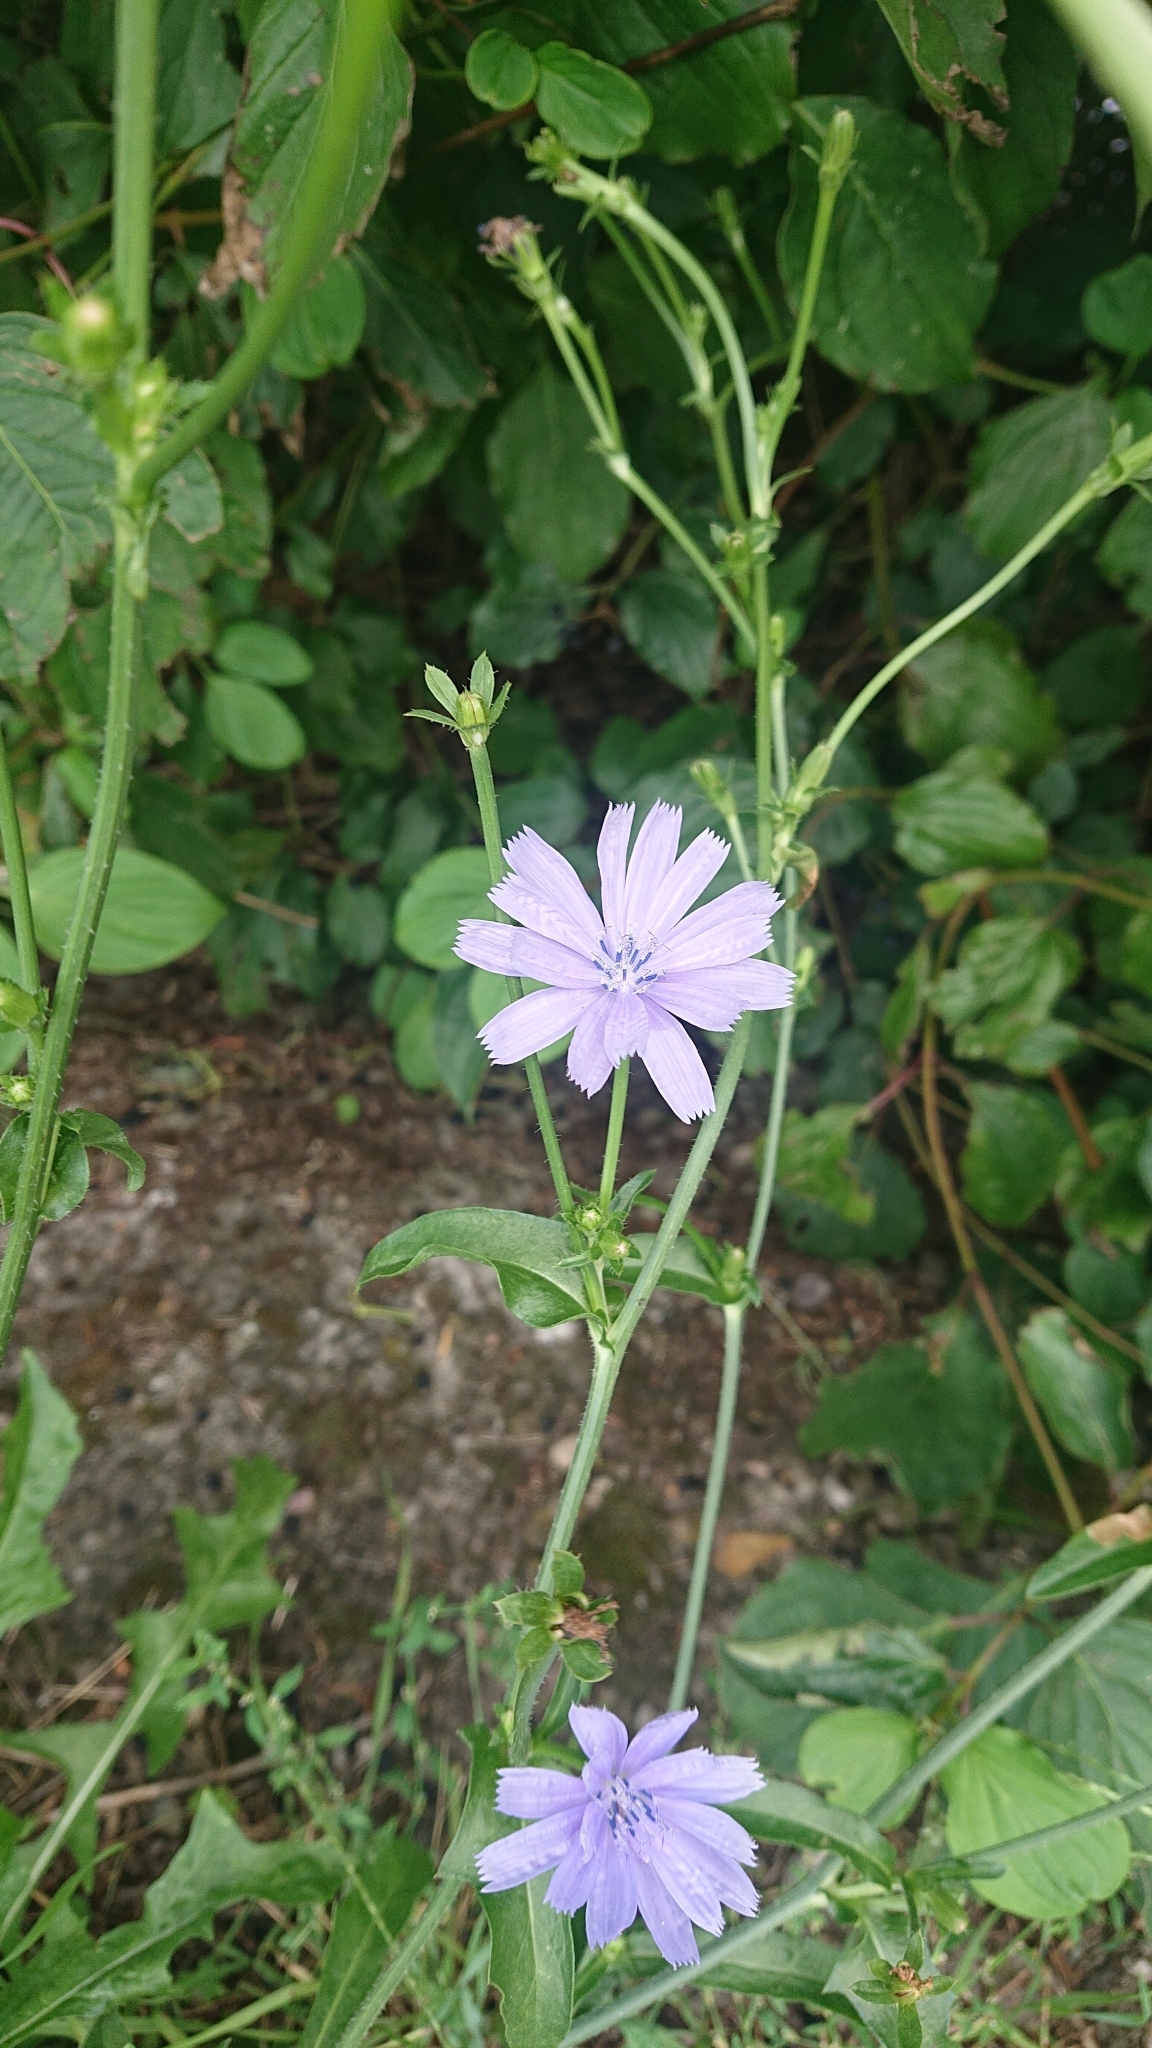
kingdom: Plantae
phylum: Tracheophyta
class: Magnoliopsida
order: Asterales
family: Asteraceae
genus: Cichorium
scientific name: Cichorium intybus
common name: Chicory
